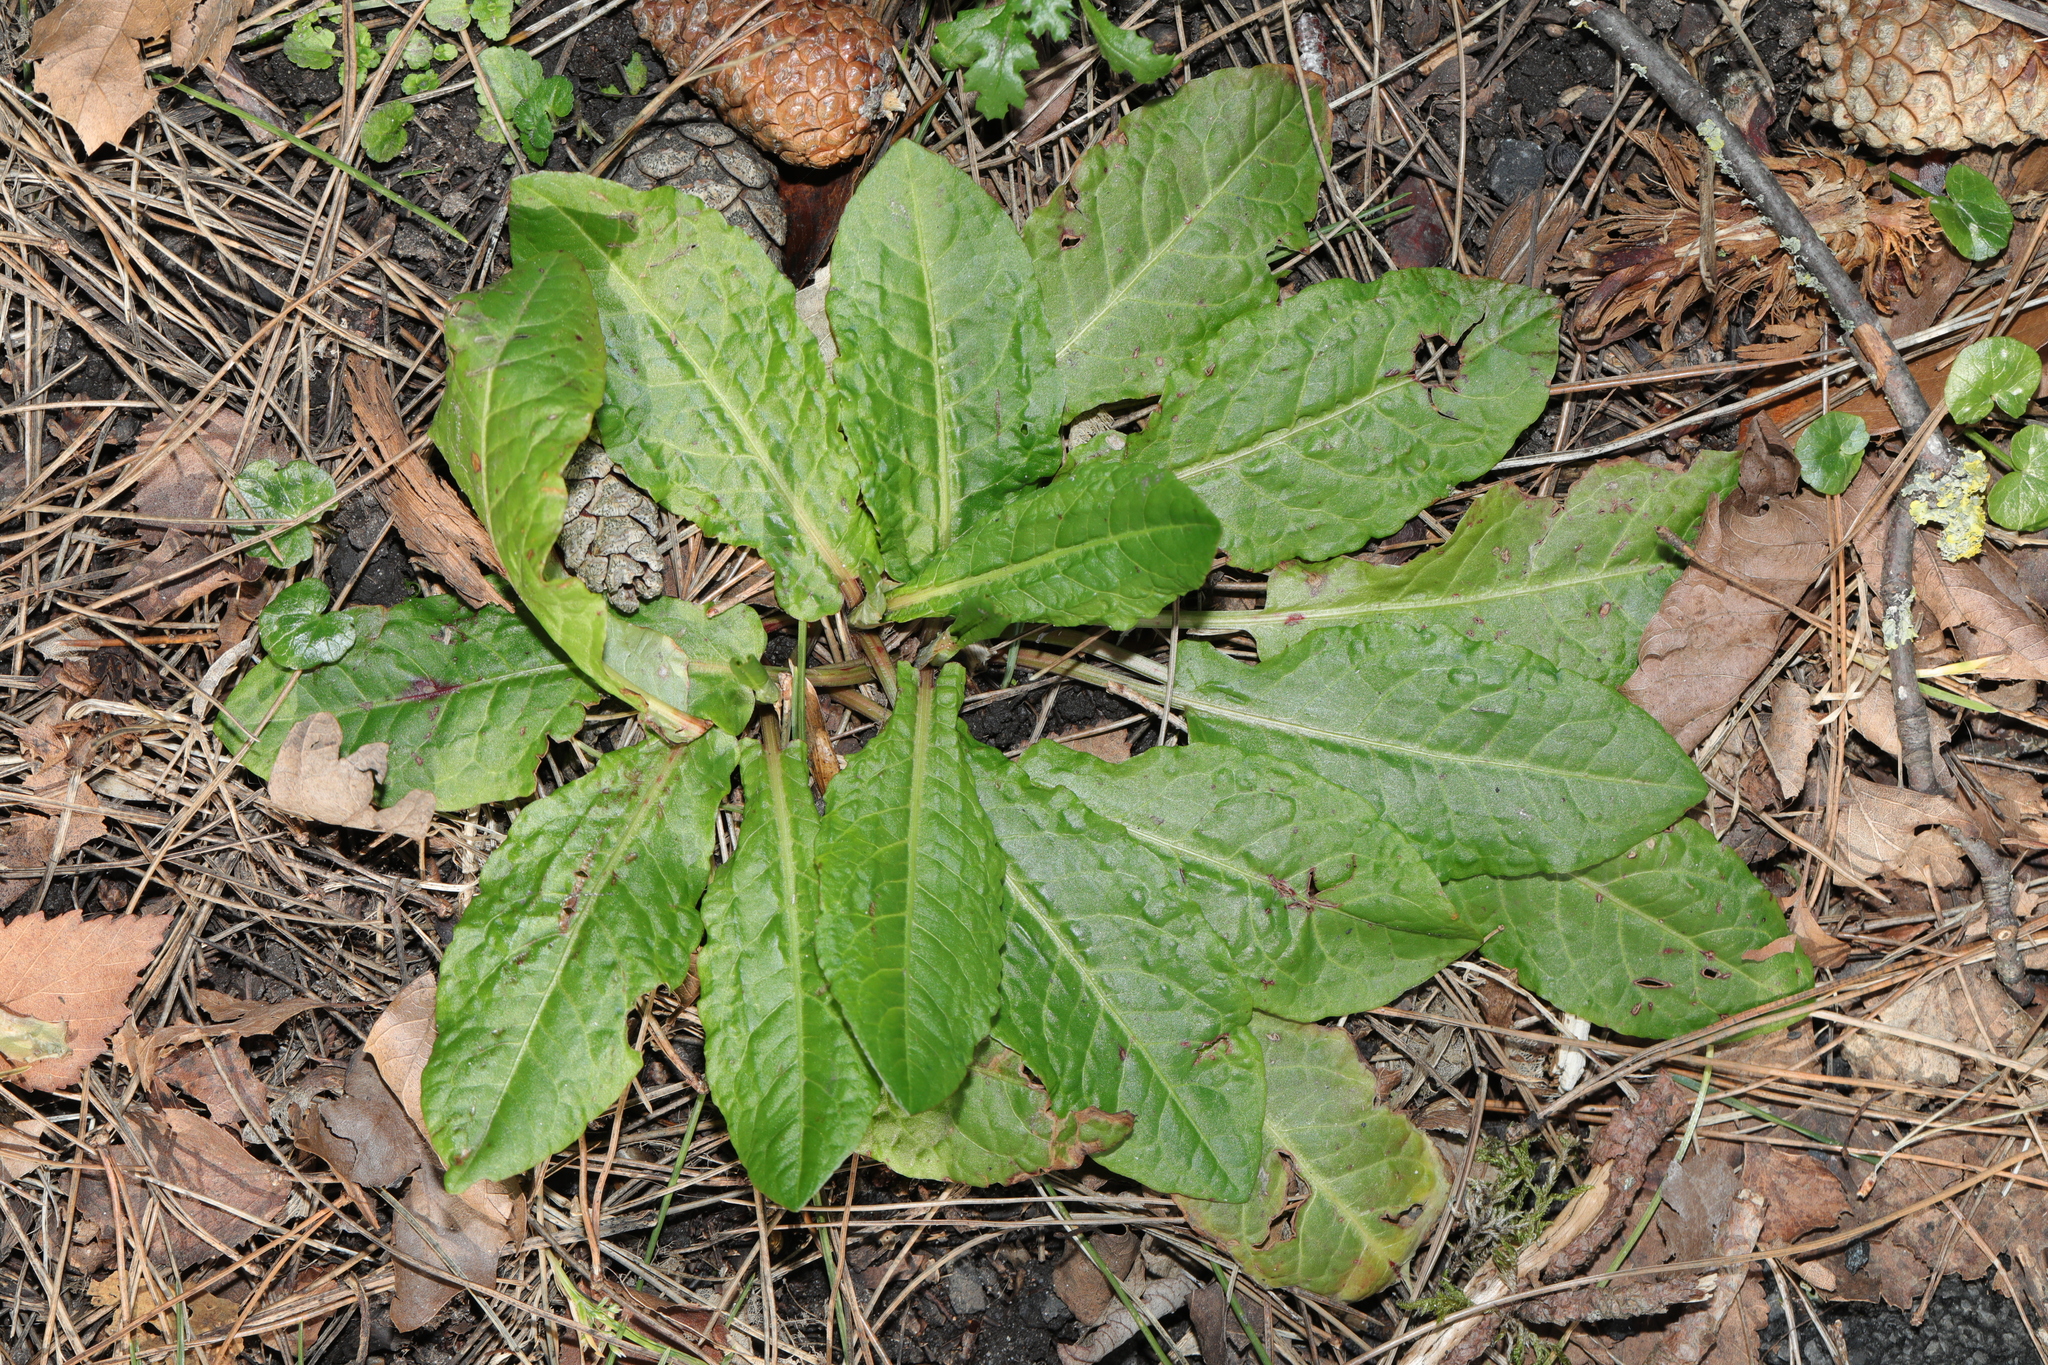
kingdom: Plantae
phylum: Tracheophyta
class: Magnoliopsida
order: Caryophyllales
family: Polygonaceae
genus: Rumex
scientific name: Rumex sanguineus
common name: Wood dock
